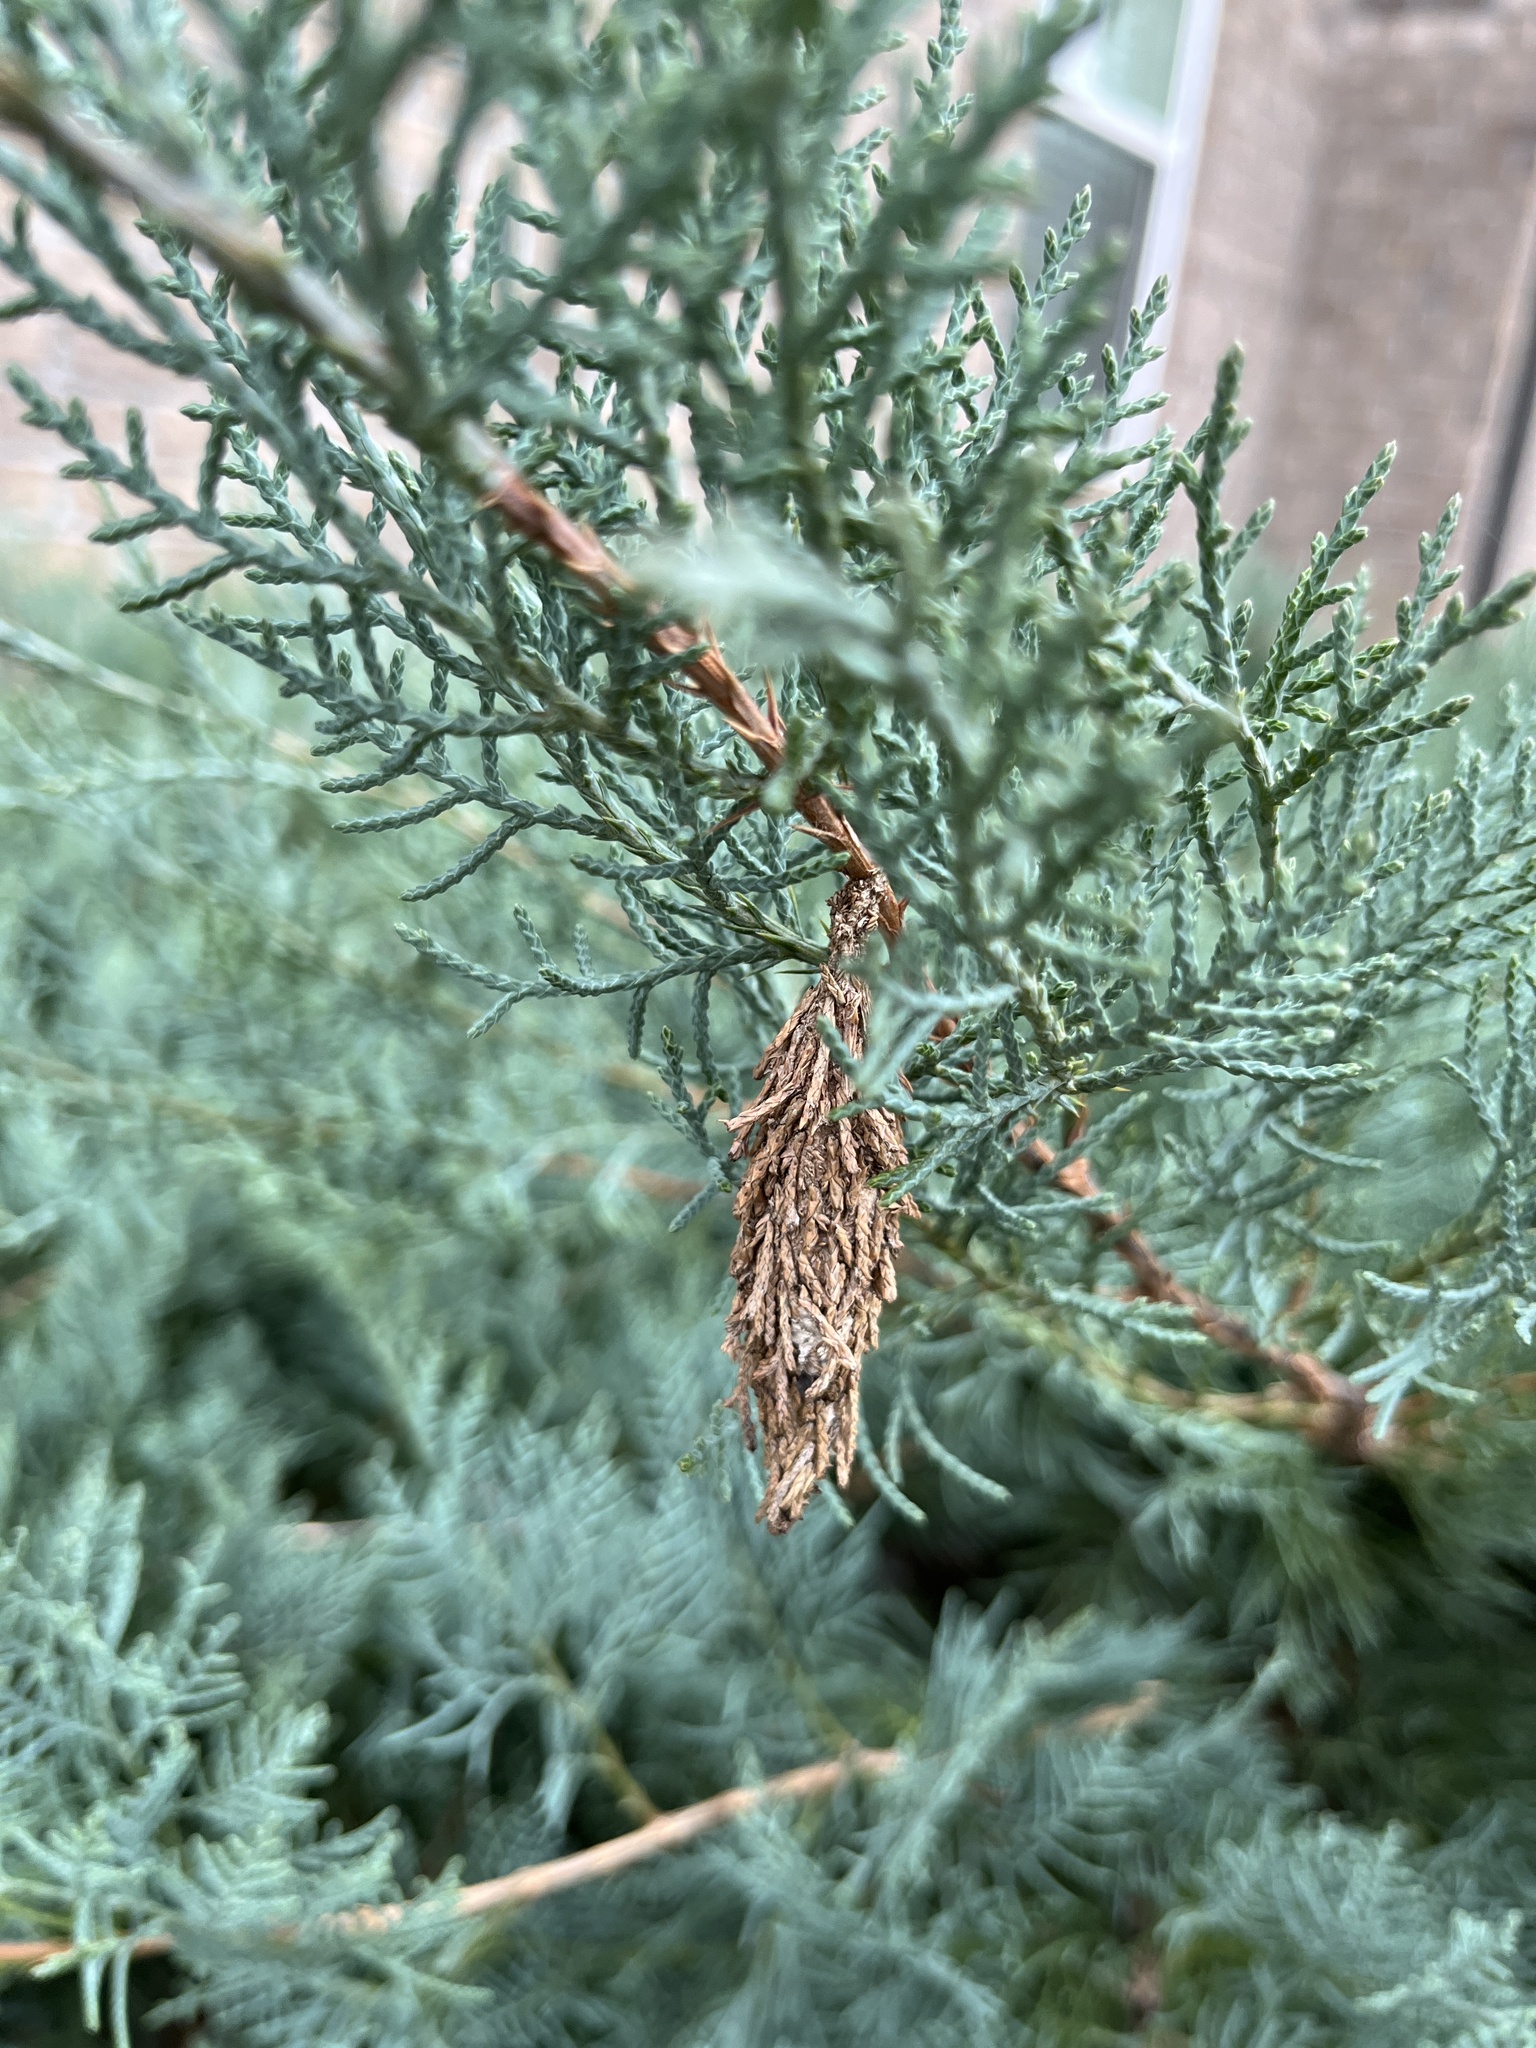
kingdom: Animalia
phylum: Arthropoda
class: Insecta
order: Lepidoptera
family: Psychidae
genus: Thyridopteryx
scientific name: Thyridopteryx ephemeraeformis
